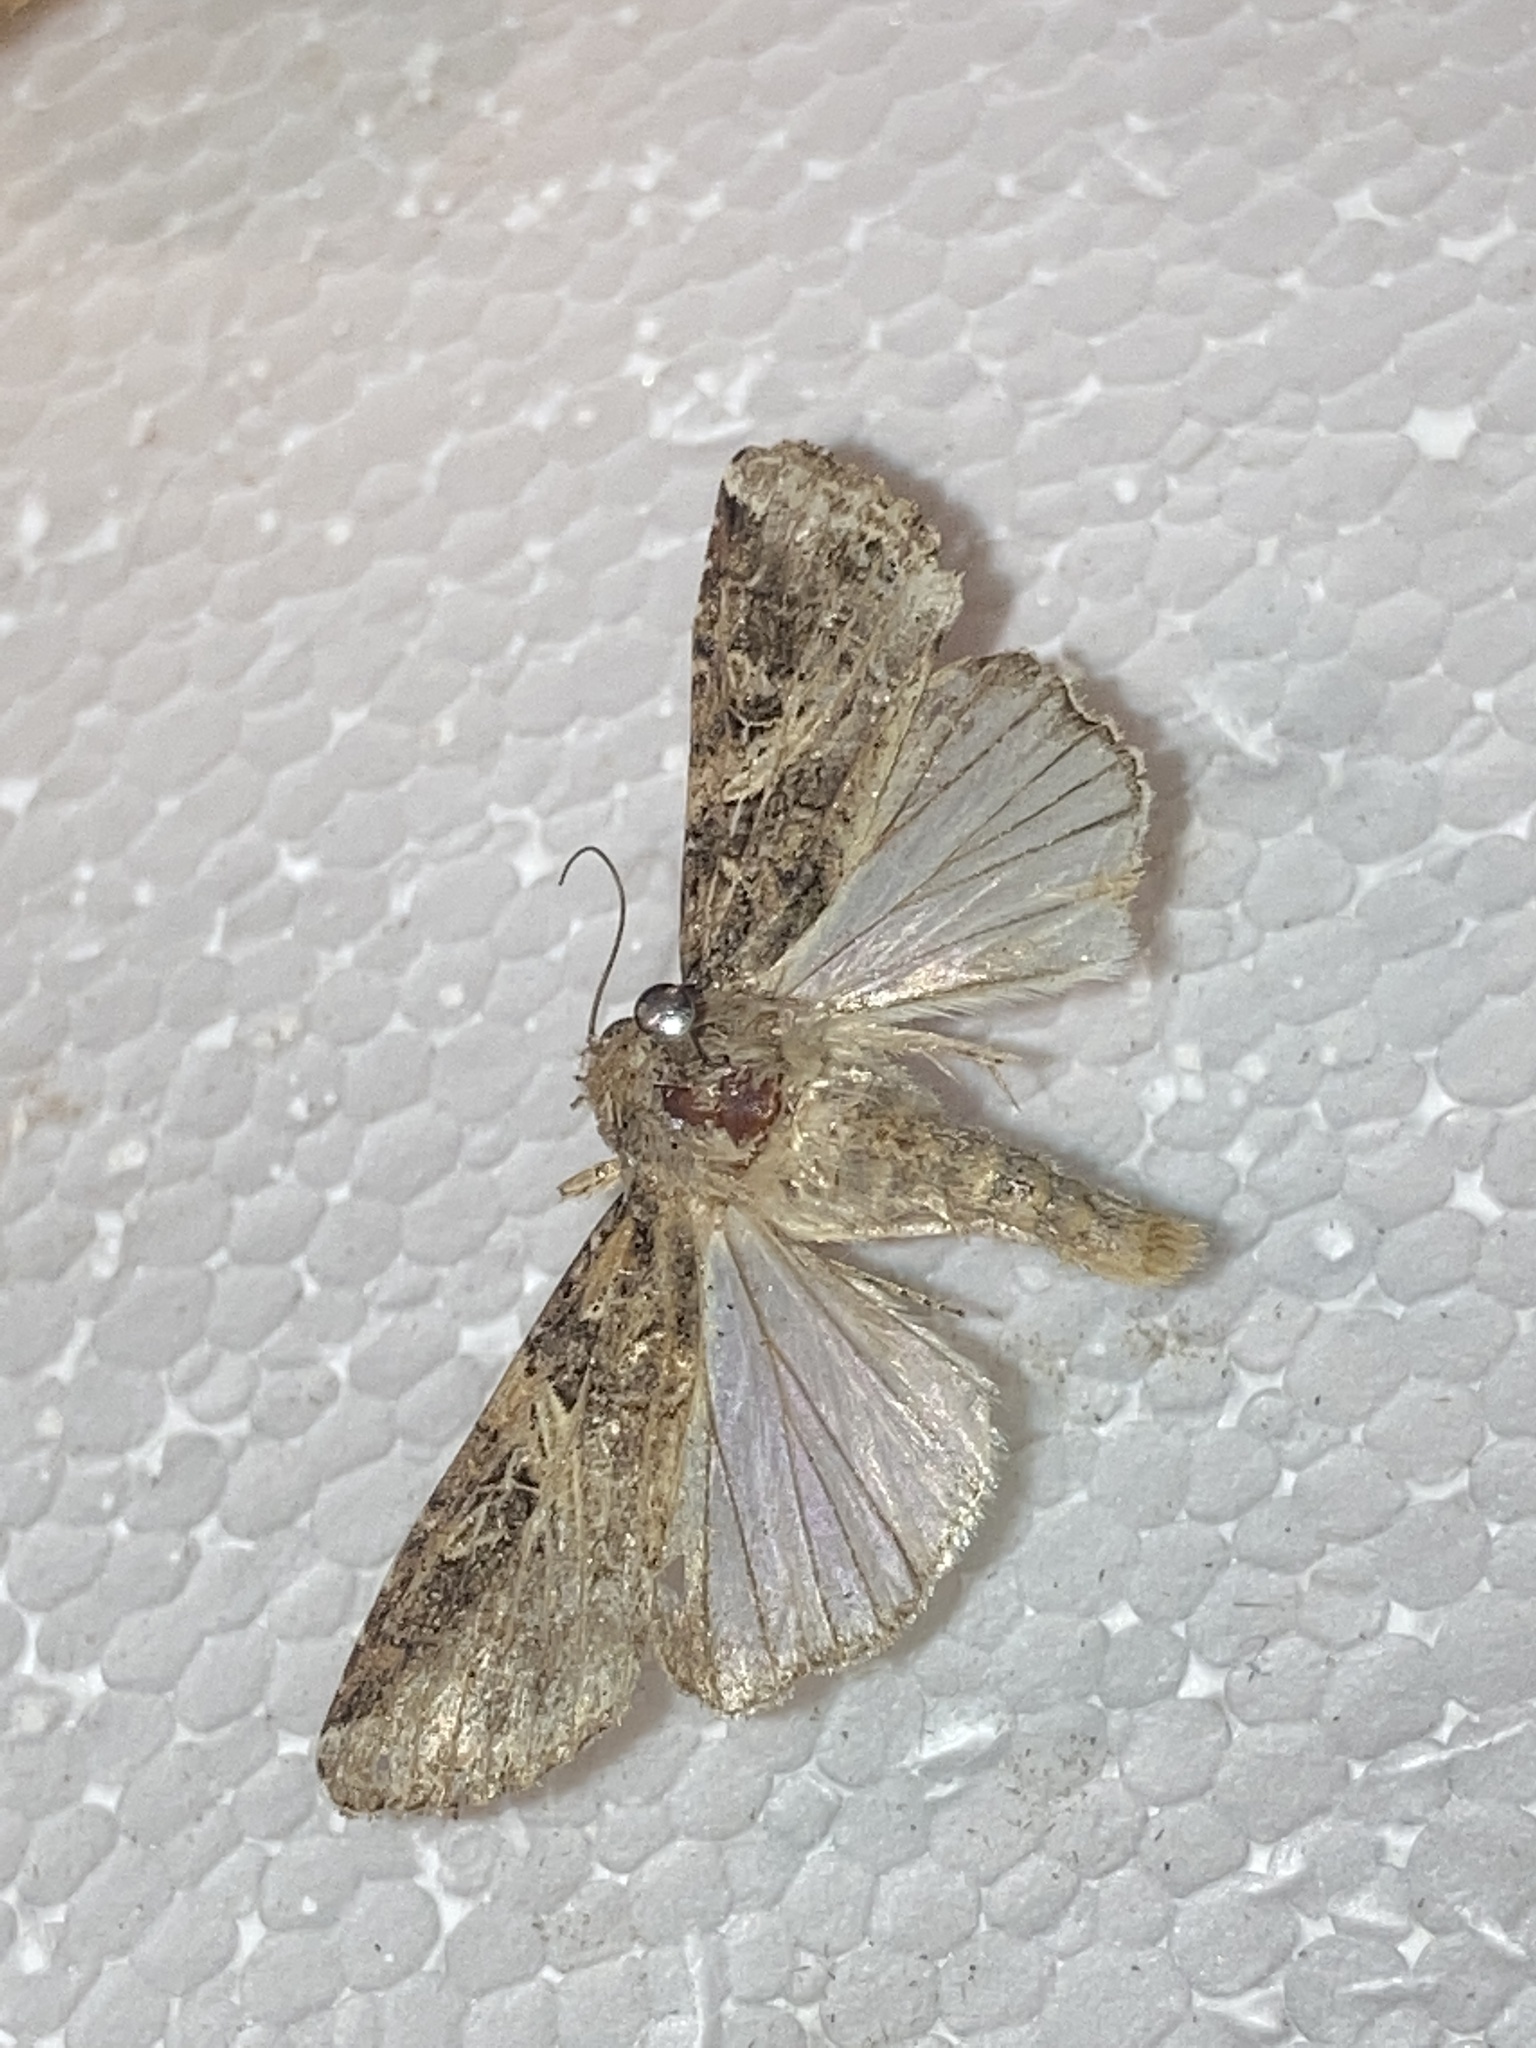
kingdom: Animalia
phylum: Arthropoda
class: Insecta
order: Lepidoptera
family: Noctuidae
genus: Spodoptera
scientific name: Spodoptera ornithogalli
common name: Yellow-striped armyworm
